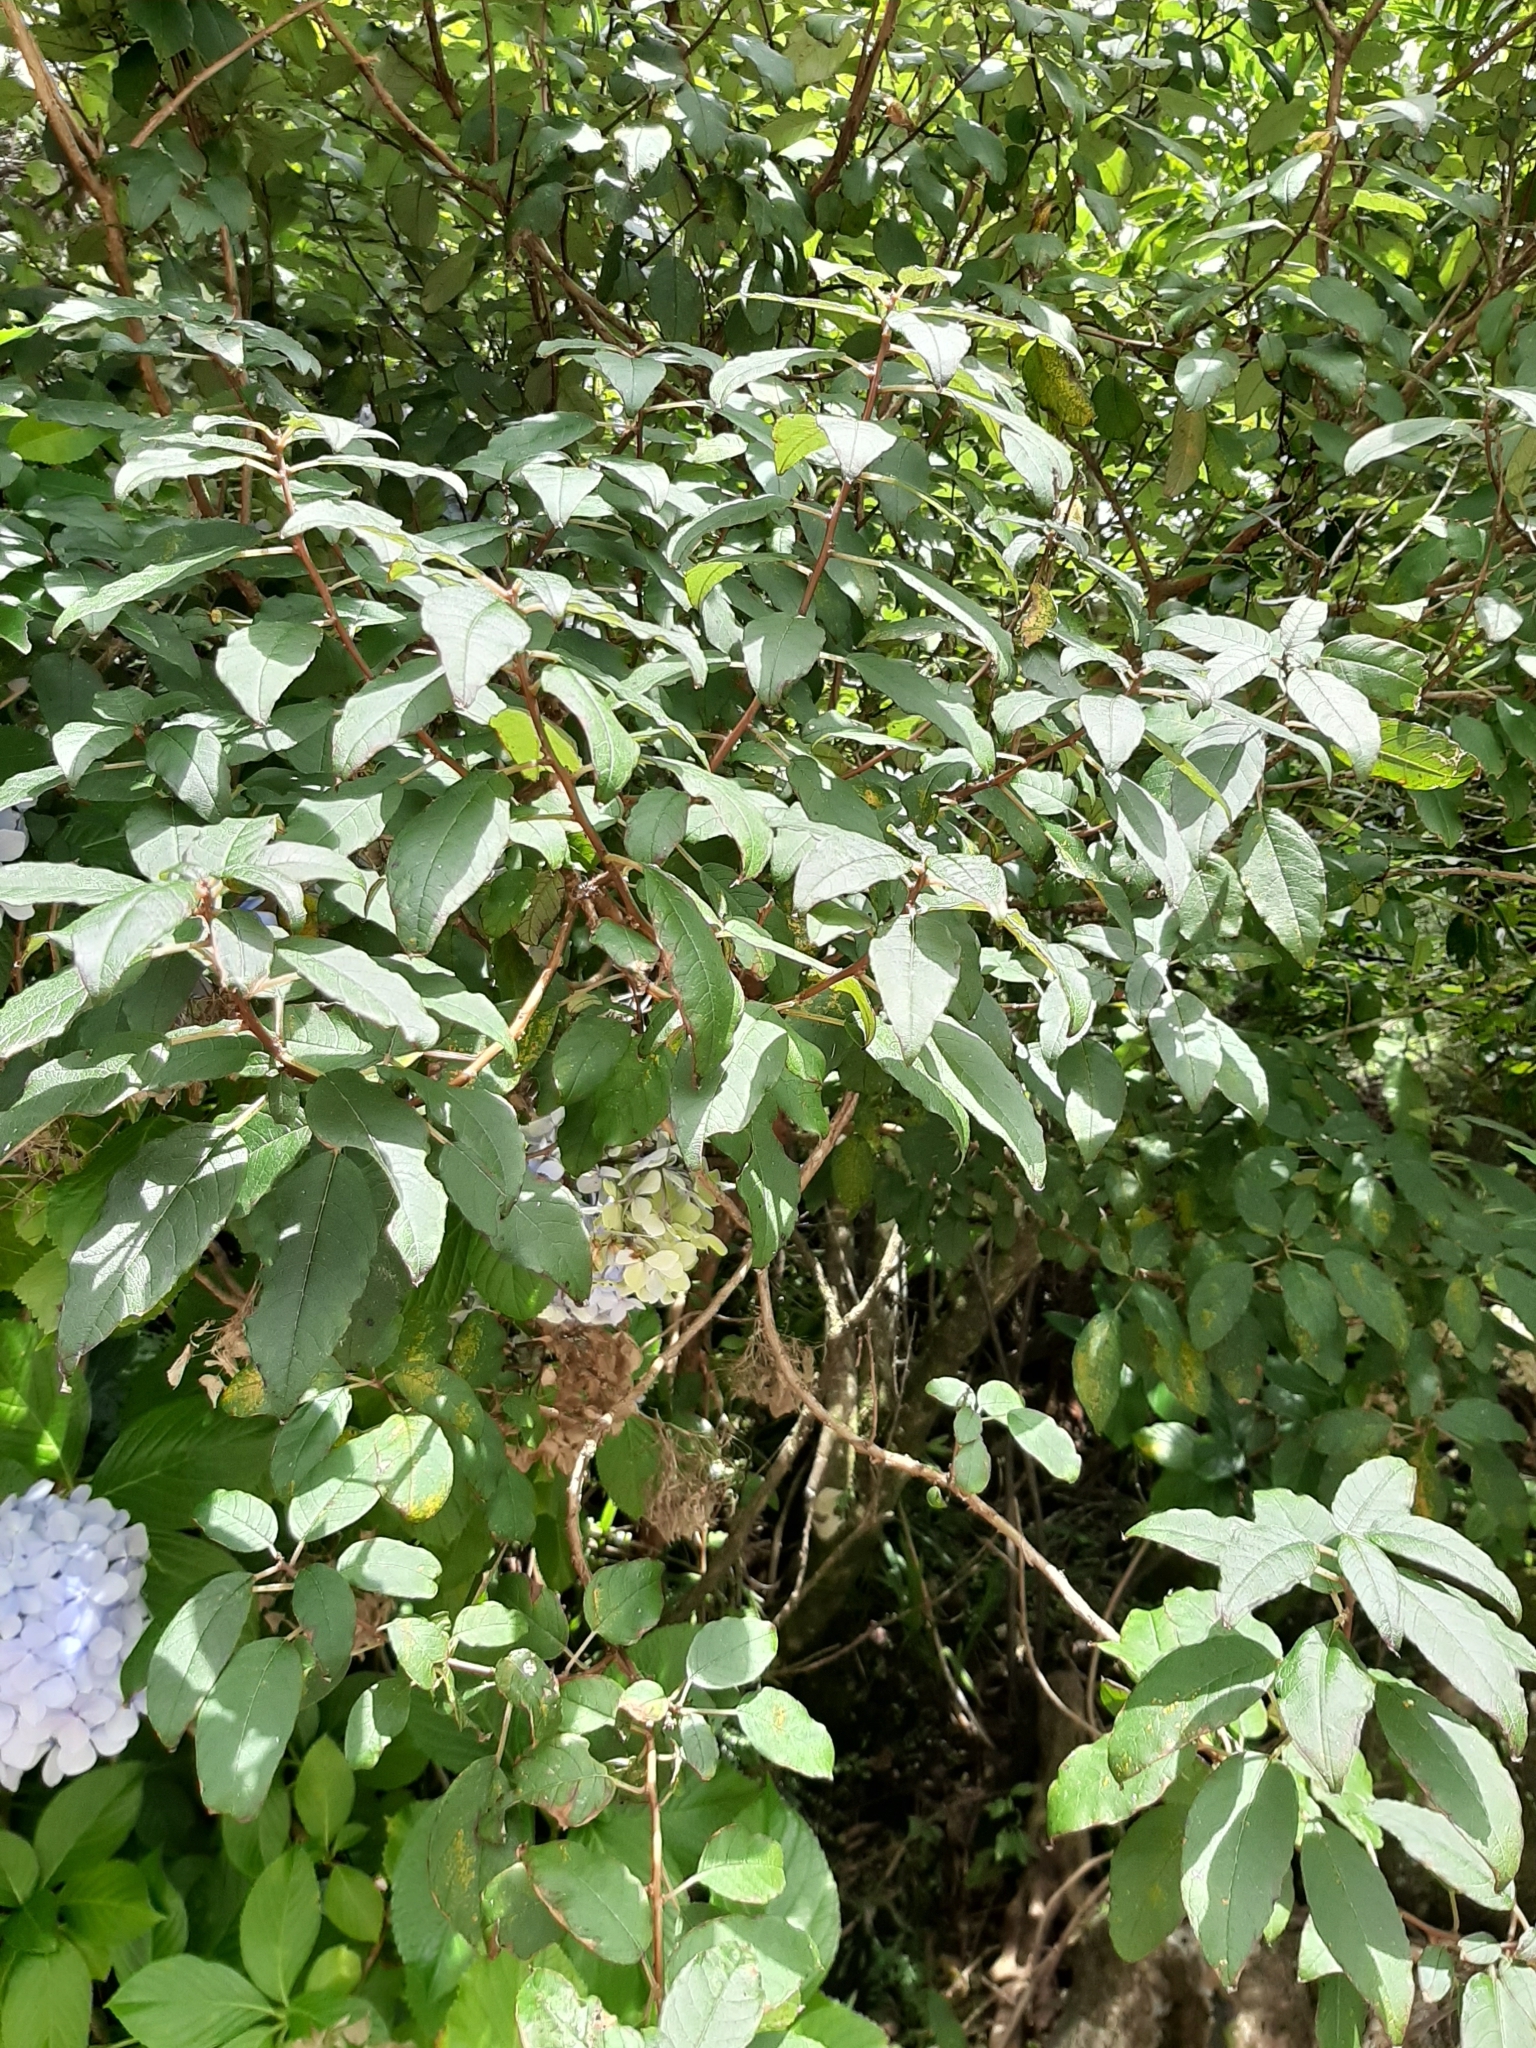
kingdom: Plantae
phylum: Tracheophyta
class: Magnoliopsida
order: Myrtales
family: Onagraceae
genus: Fuchsia
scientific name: Fuchsia excorticata
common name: Tree fuchsia
